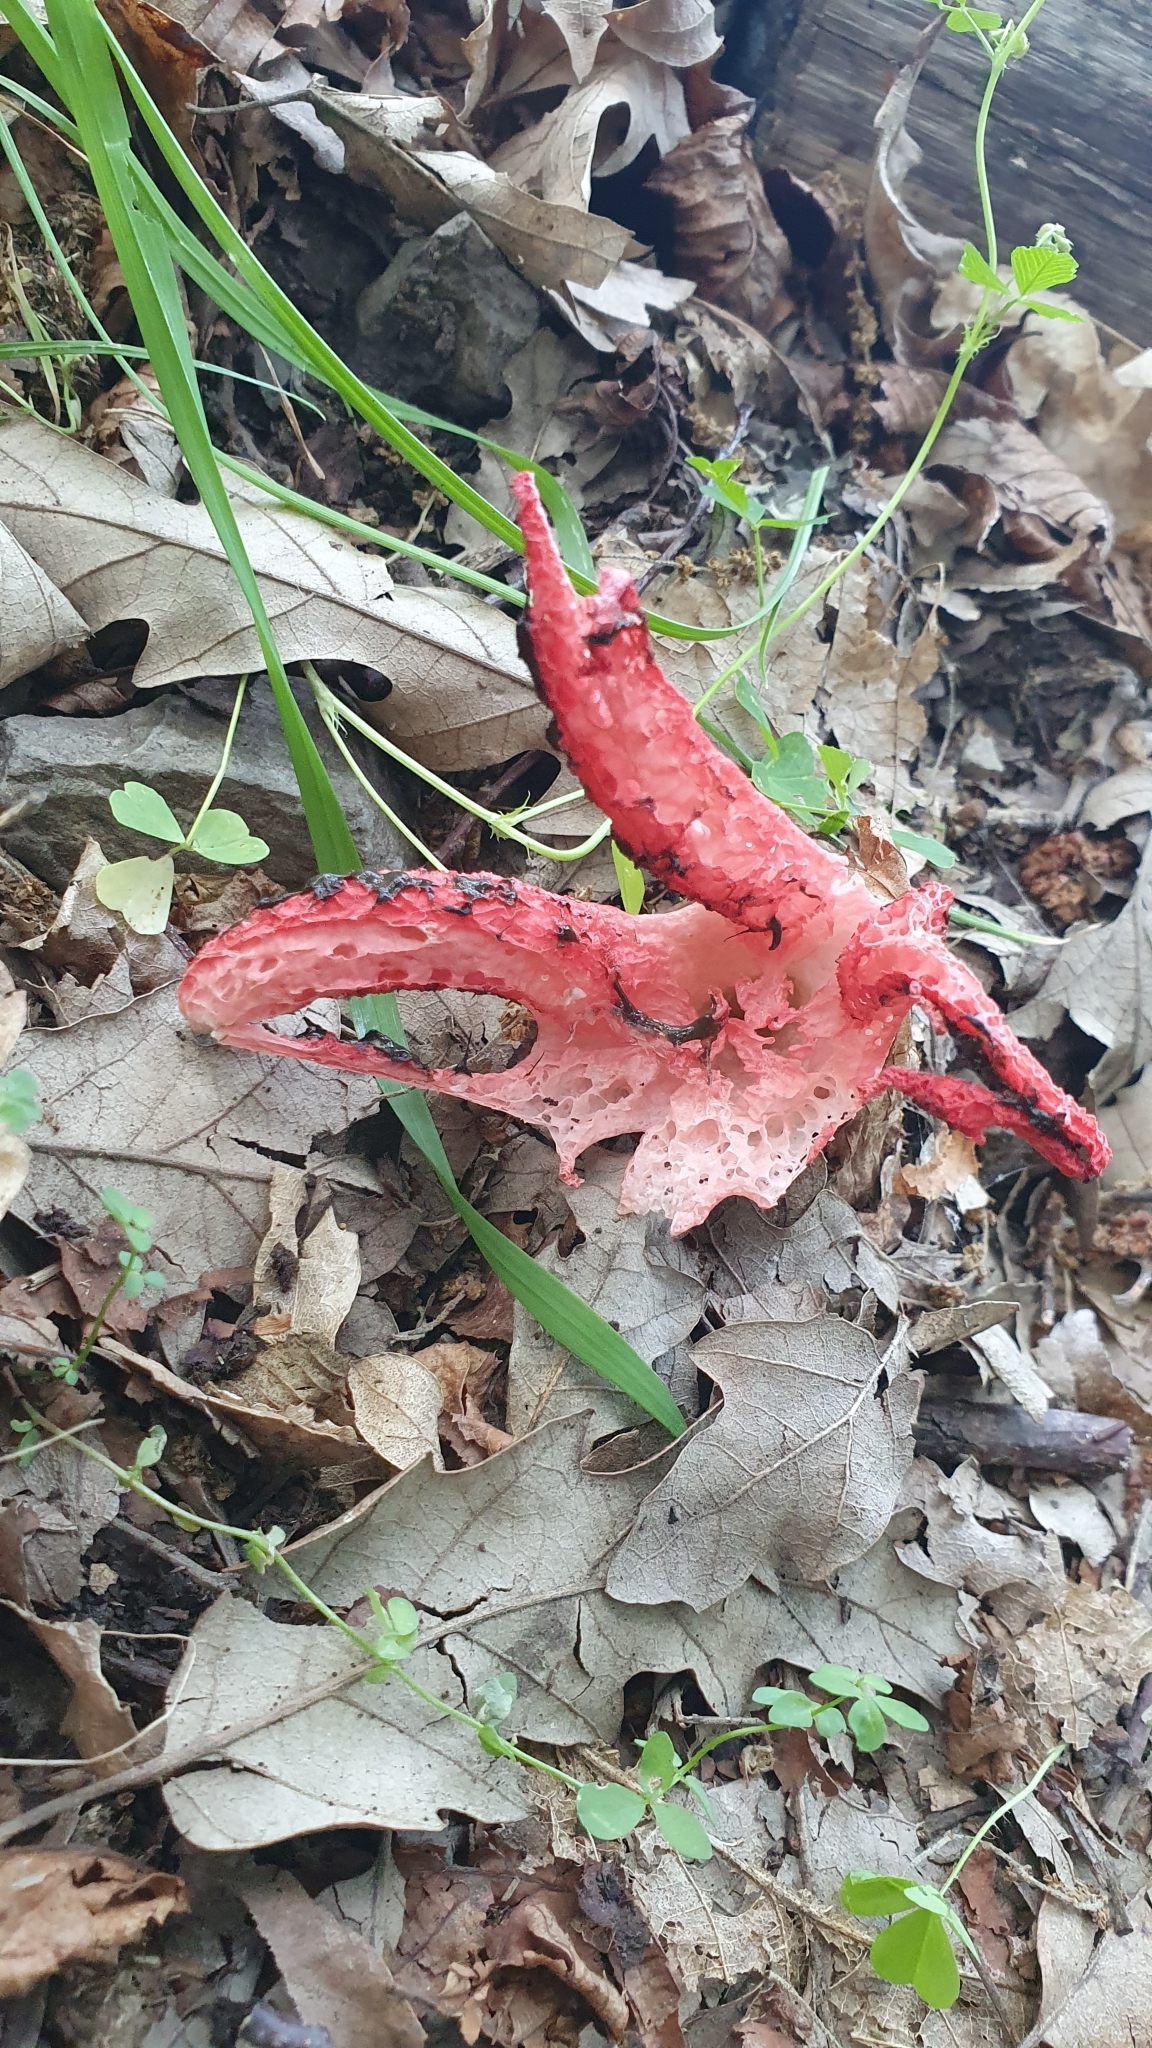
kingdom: Fungi
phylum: Basidiomycota
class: Agaricomycetes
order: Phallales
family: Phallaceae
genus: Clathrus
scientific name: Clathrus archeri
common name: Devil's fingers
